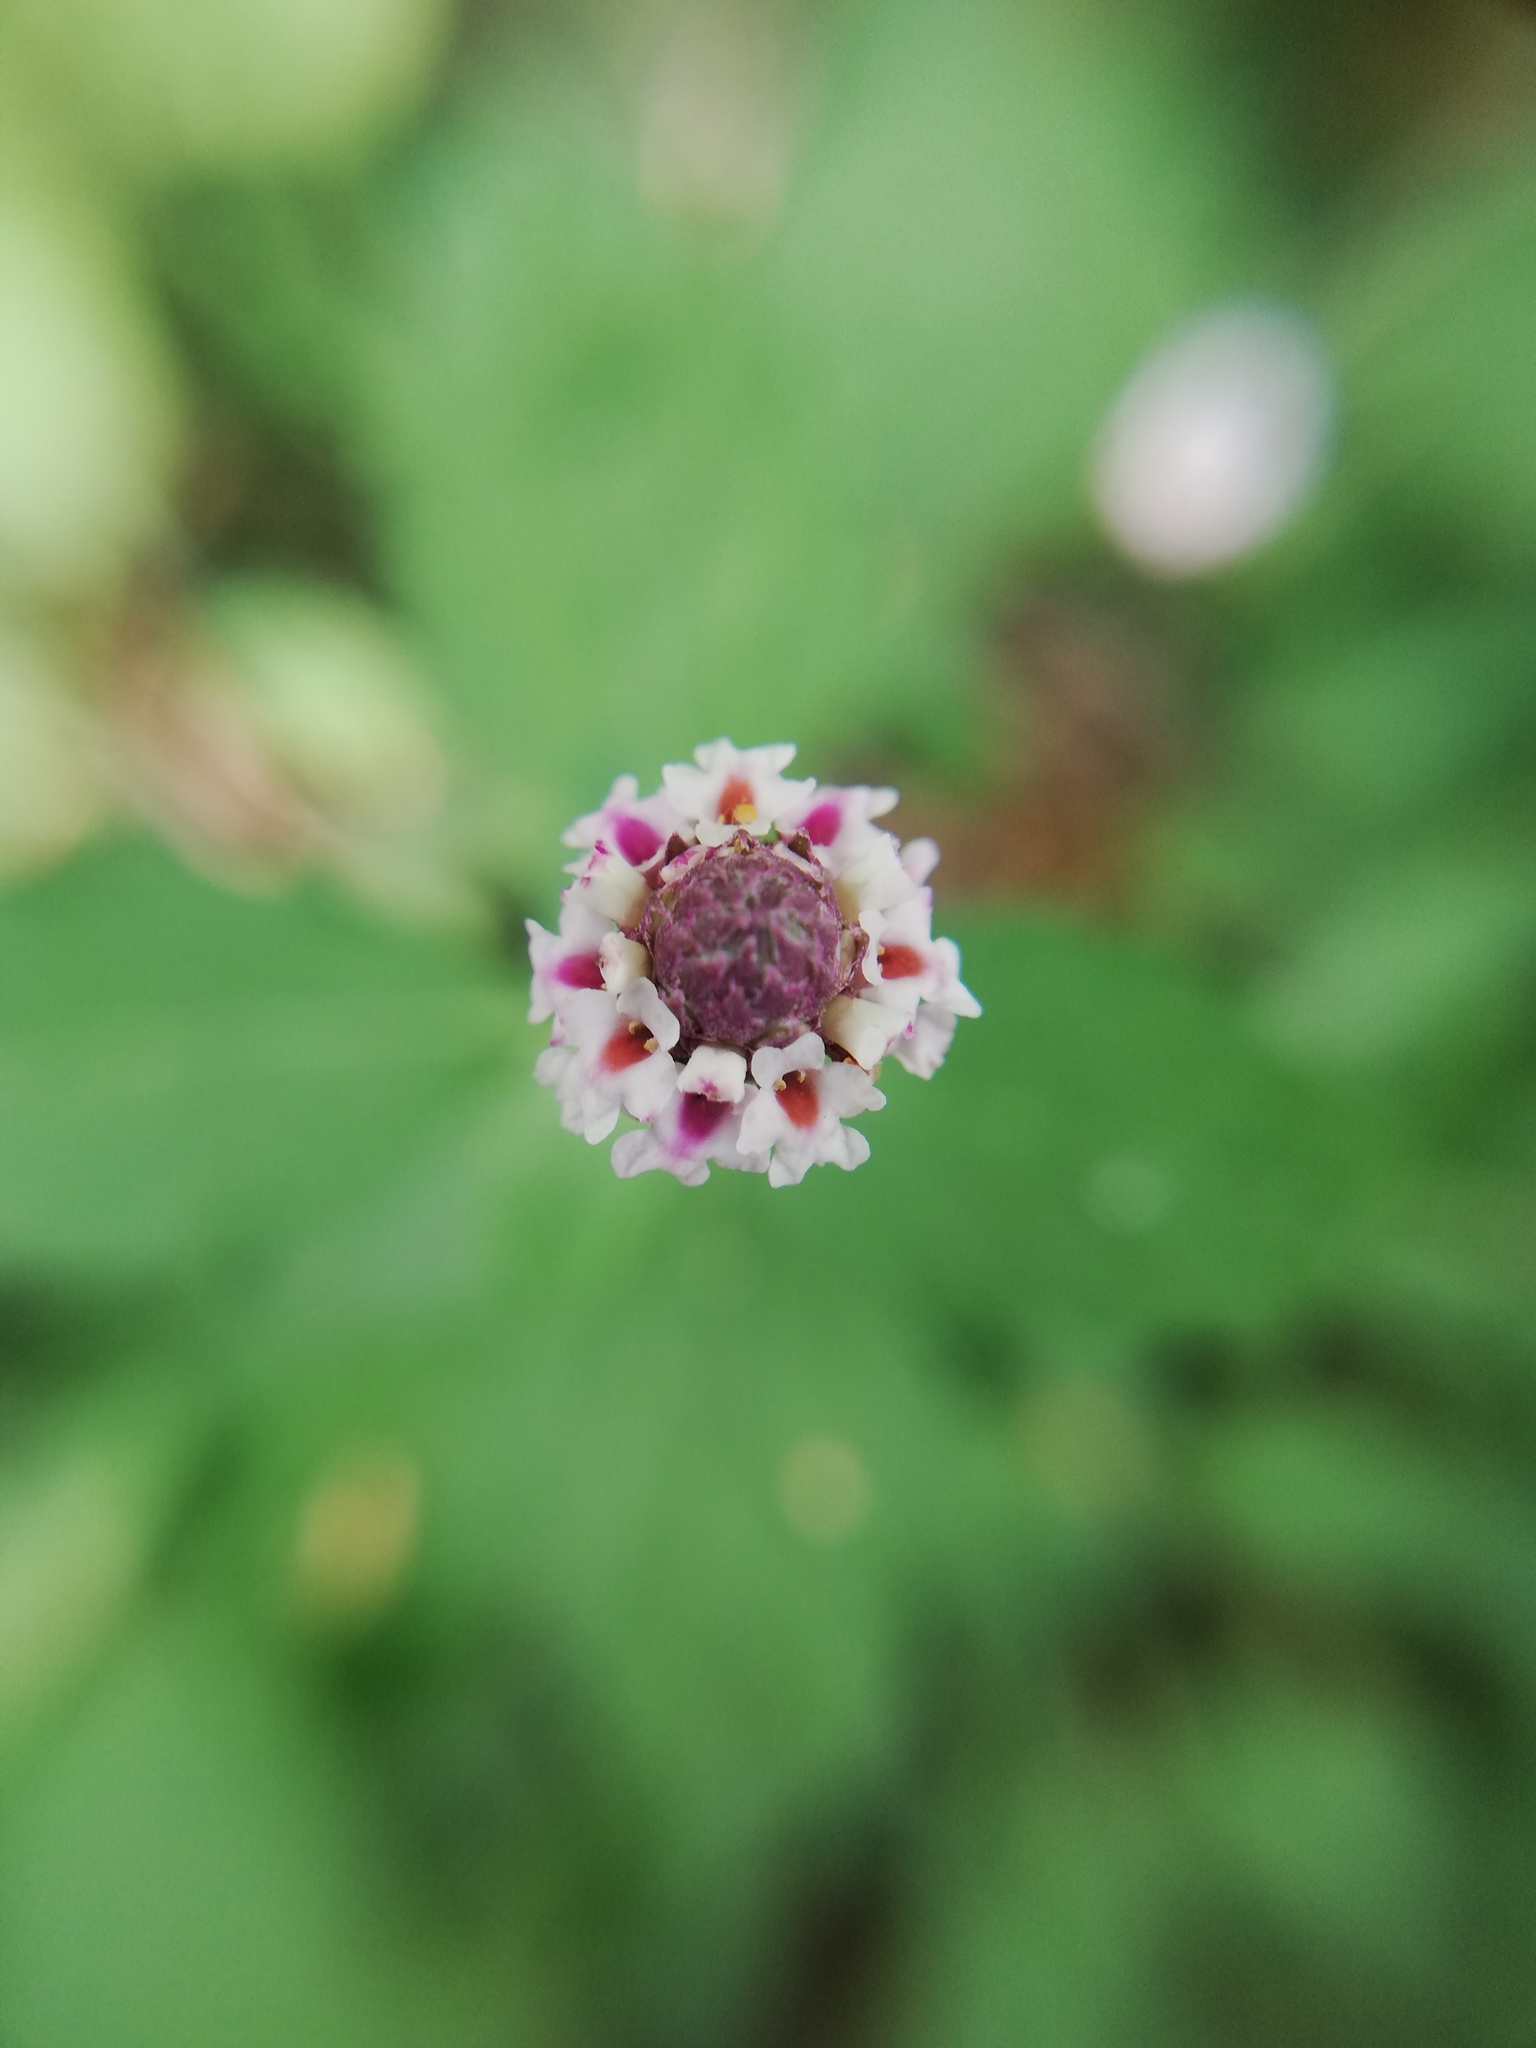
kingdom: Plantae
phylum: Tracheophyta
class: Magnoliopsida
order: Lamiales
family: Verbenaceae
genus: Phyla
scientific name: Phyla lanceolata
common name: Northern fogfruit
